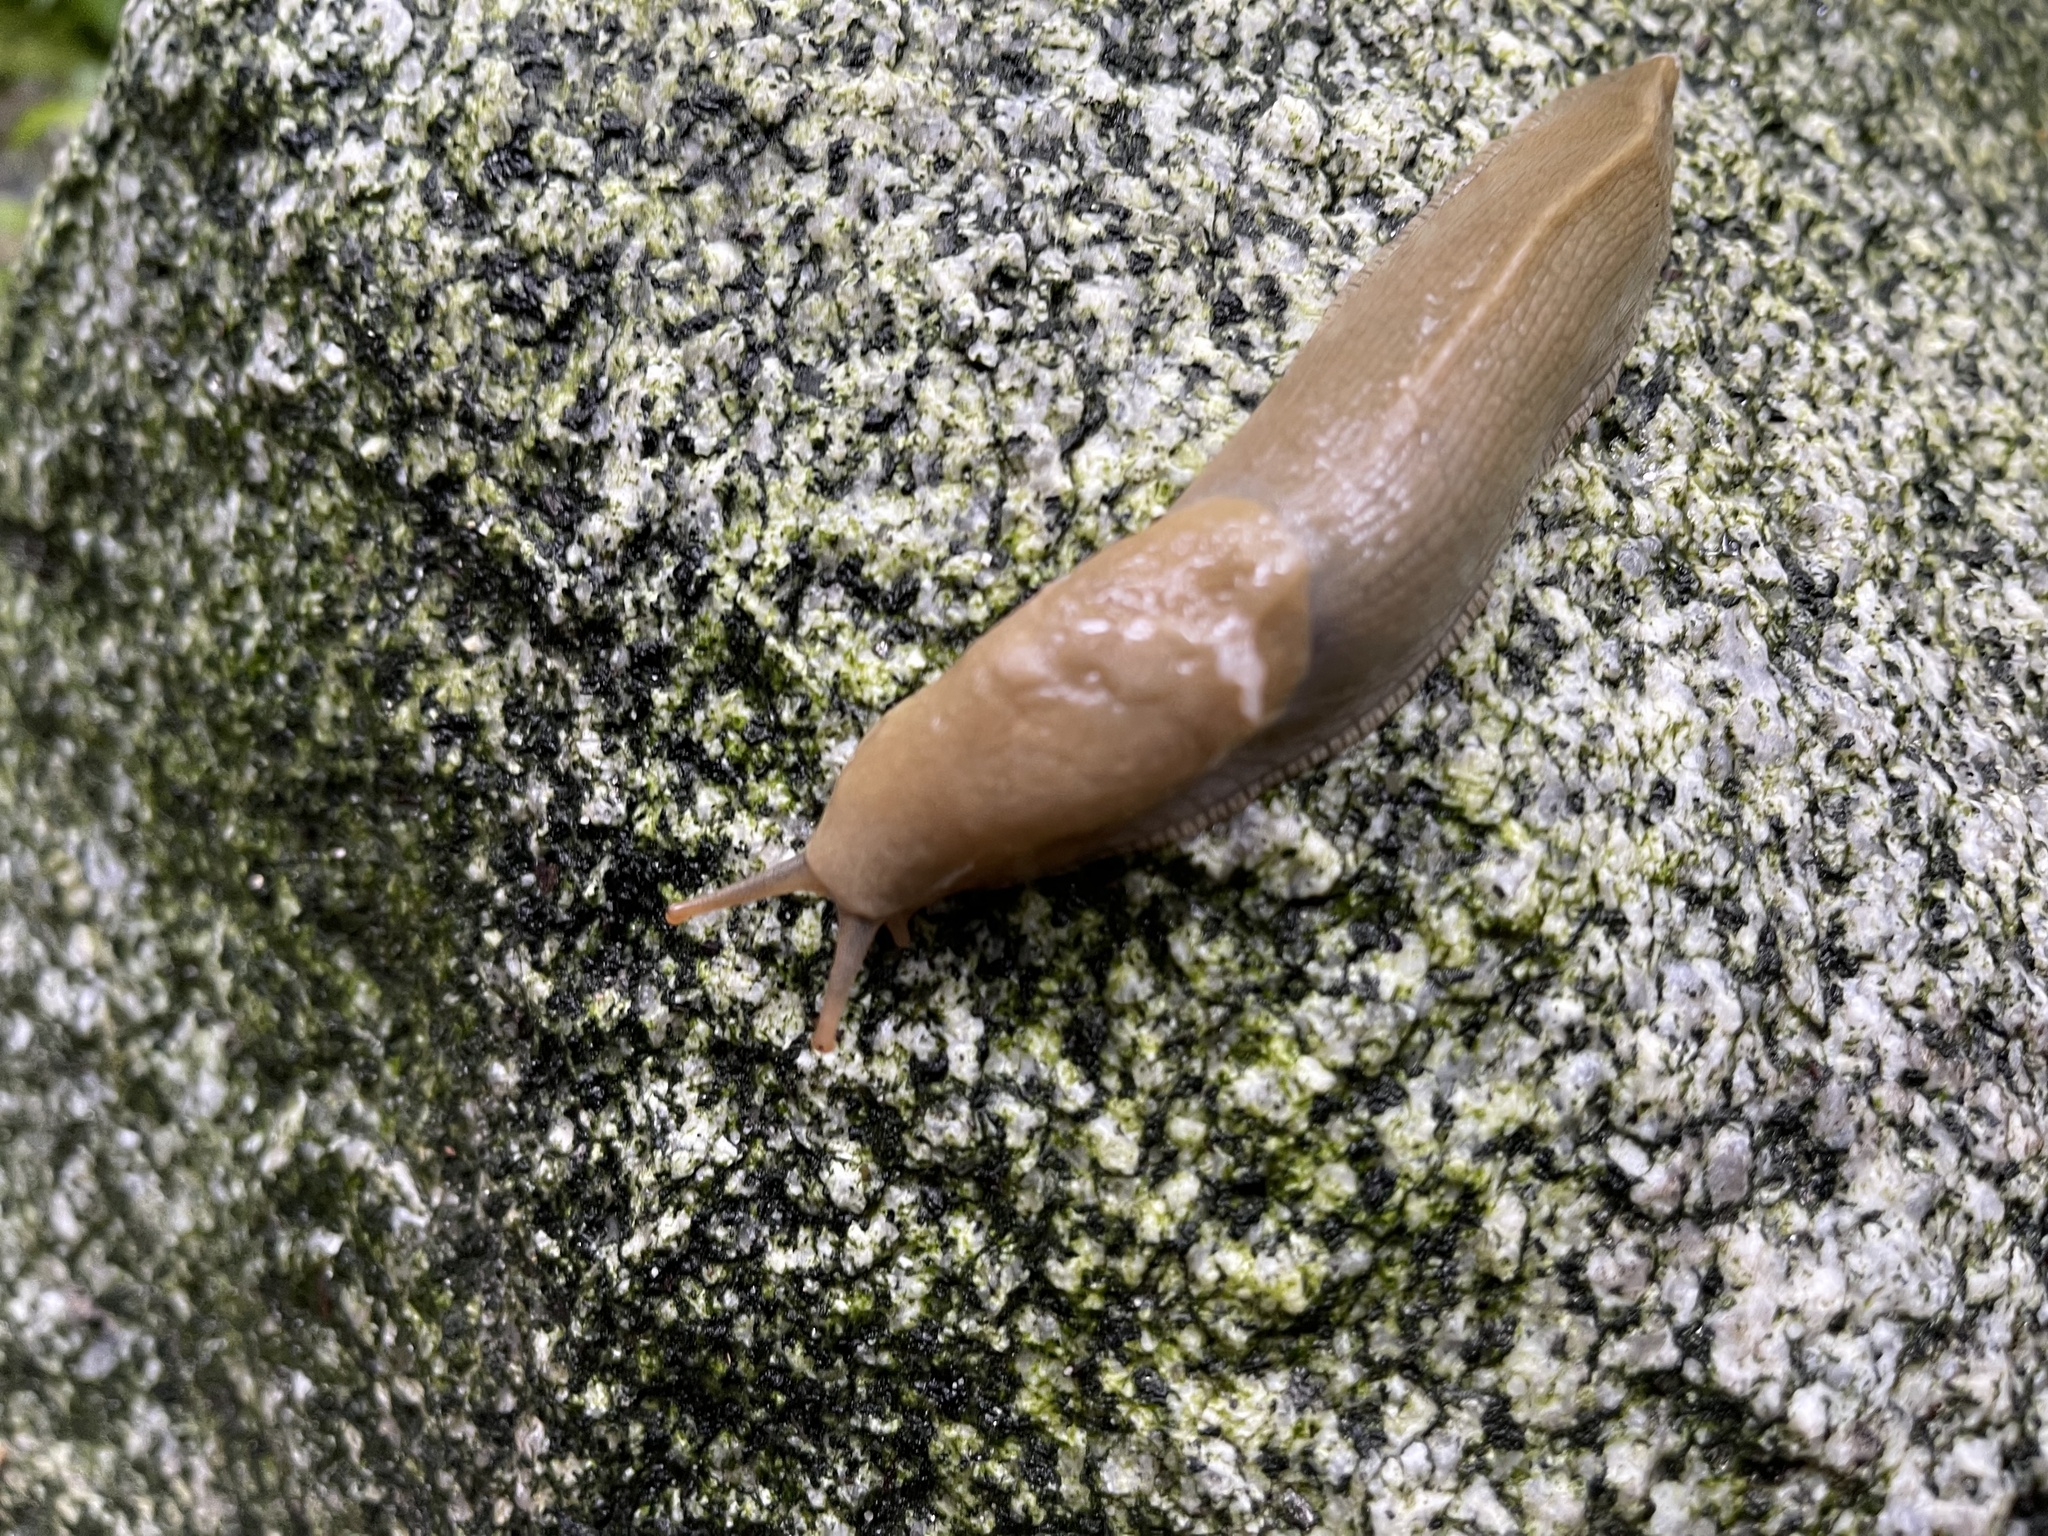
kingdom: Animalia
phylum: Mollusca
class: Gastropoda
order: Stylommatophora
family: Ariolimacidae
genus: Ariolimax
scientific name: Ariolimax columbianus
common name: Pacific banana slug
